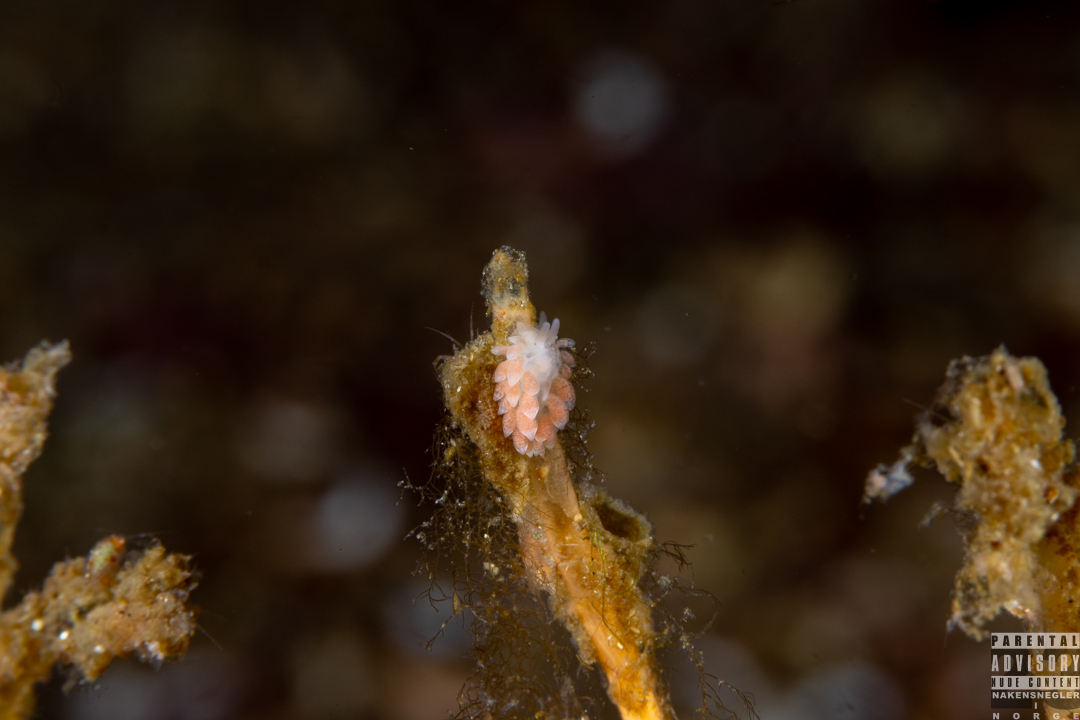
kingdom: Animalia
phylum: Mollusca
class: Gastropoda
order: Nudibranchia
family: Trinchesiidae
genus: Catriona
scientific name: Catriona aurantia
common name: Corange-tip cuthona
